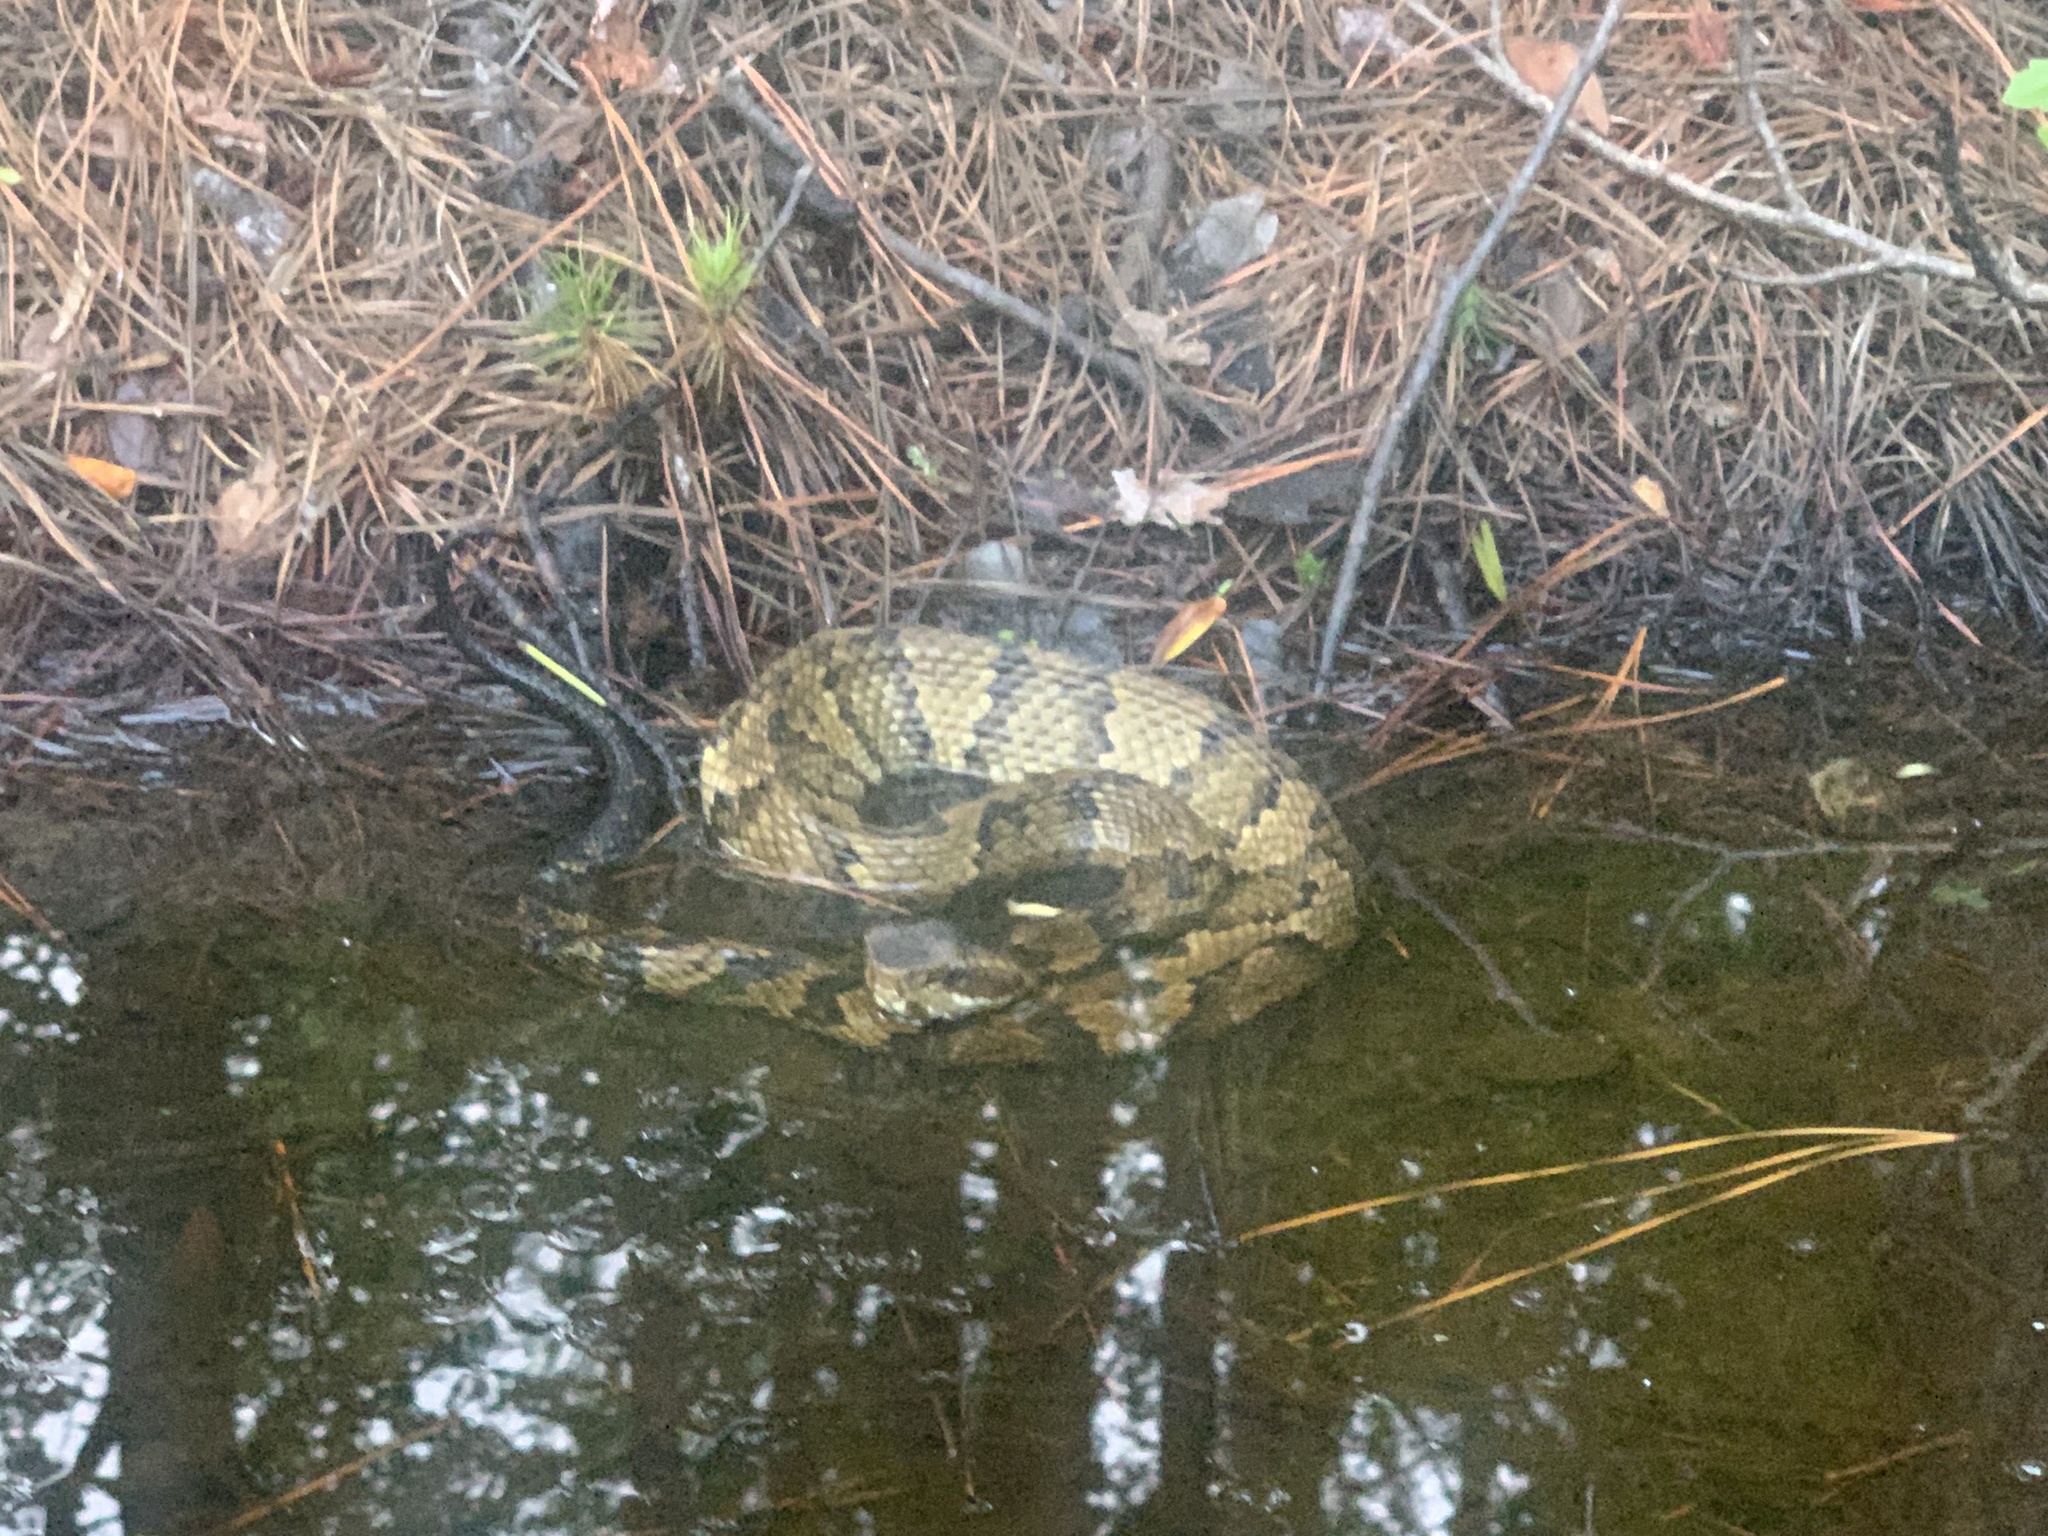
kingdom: Animalia
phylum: Chordata
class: Squamata
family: Viperidae
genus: Agkistrodon
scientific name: Agkistrodon piscivorus
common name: Cottonmouth
